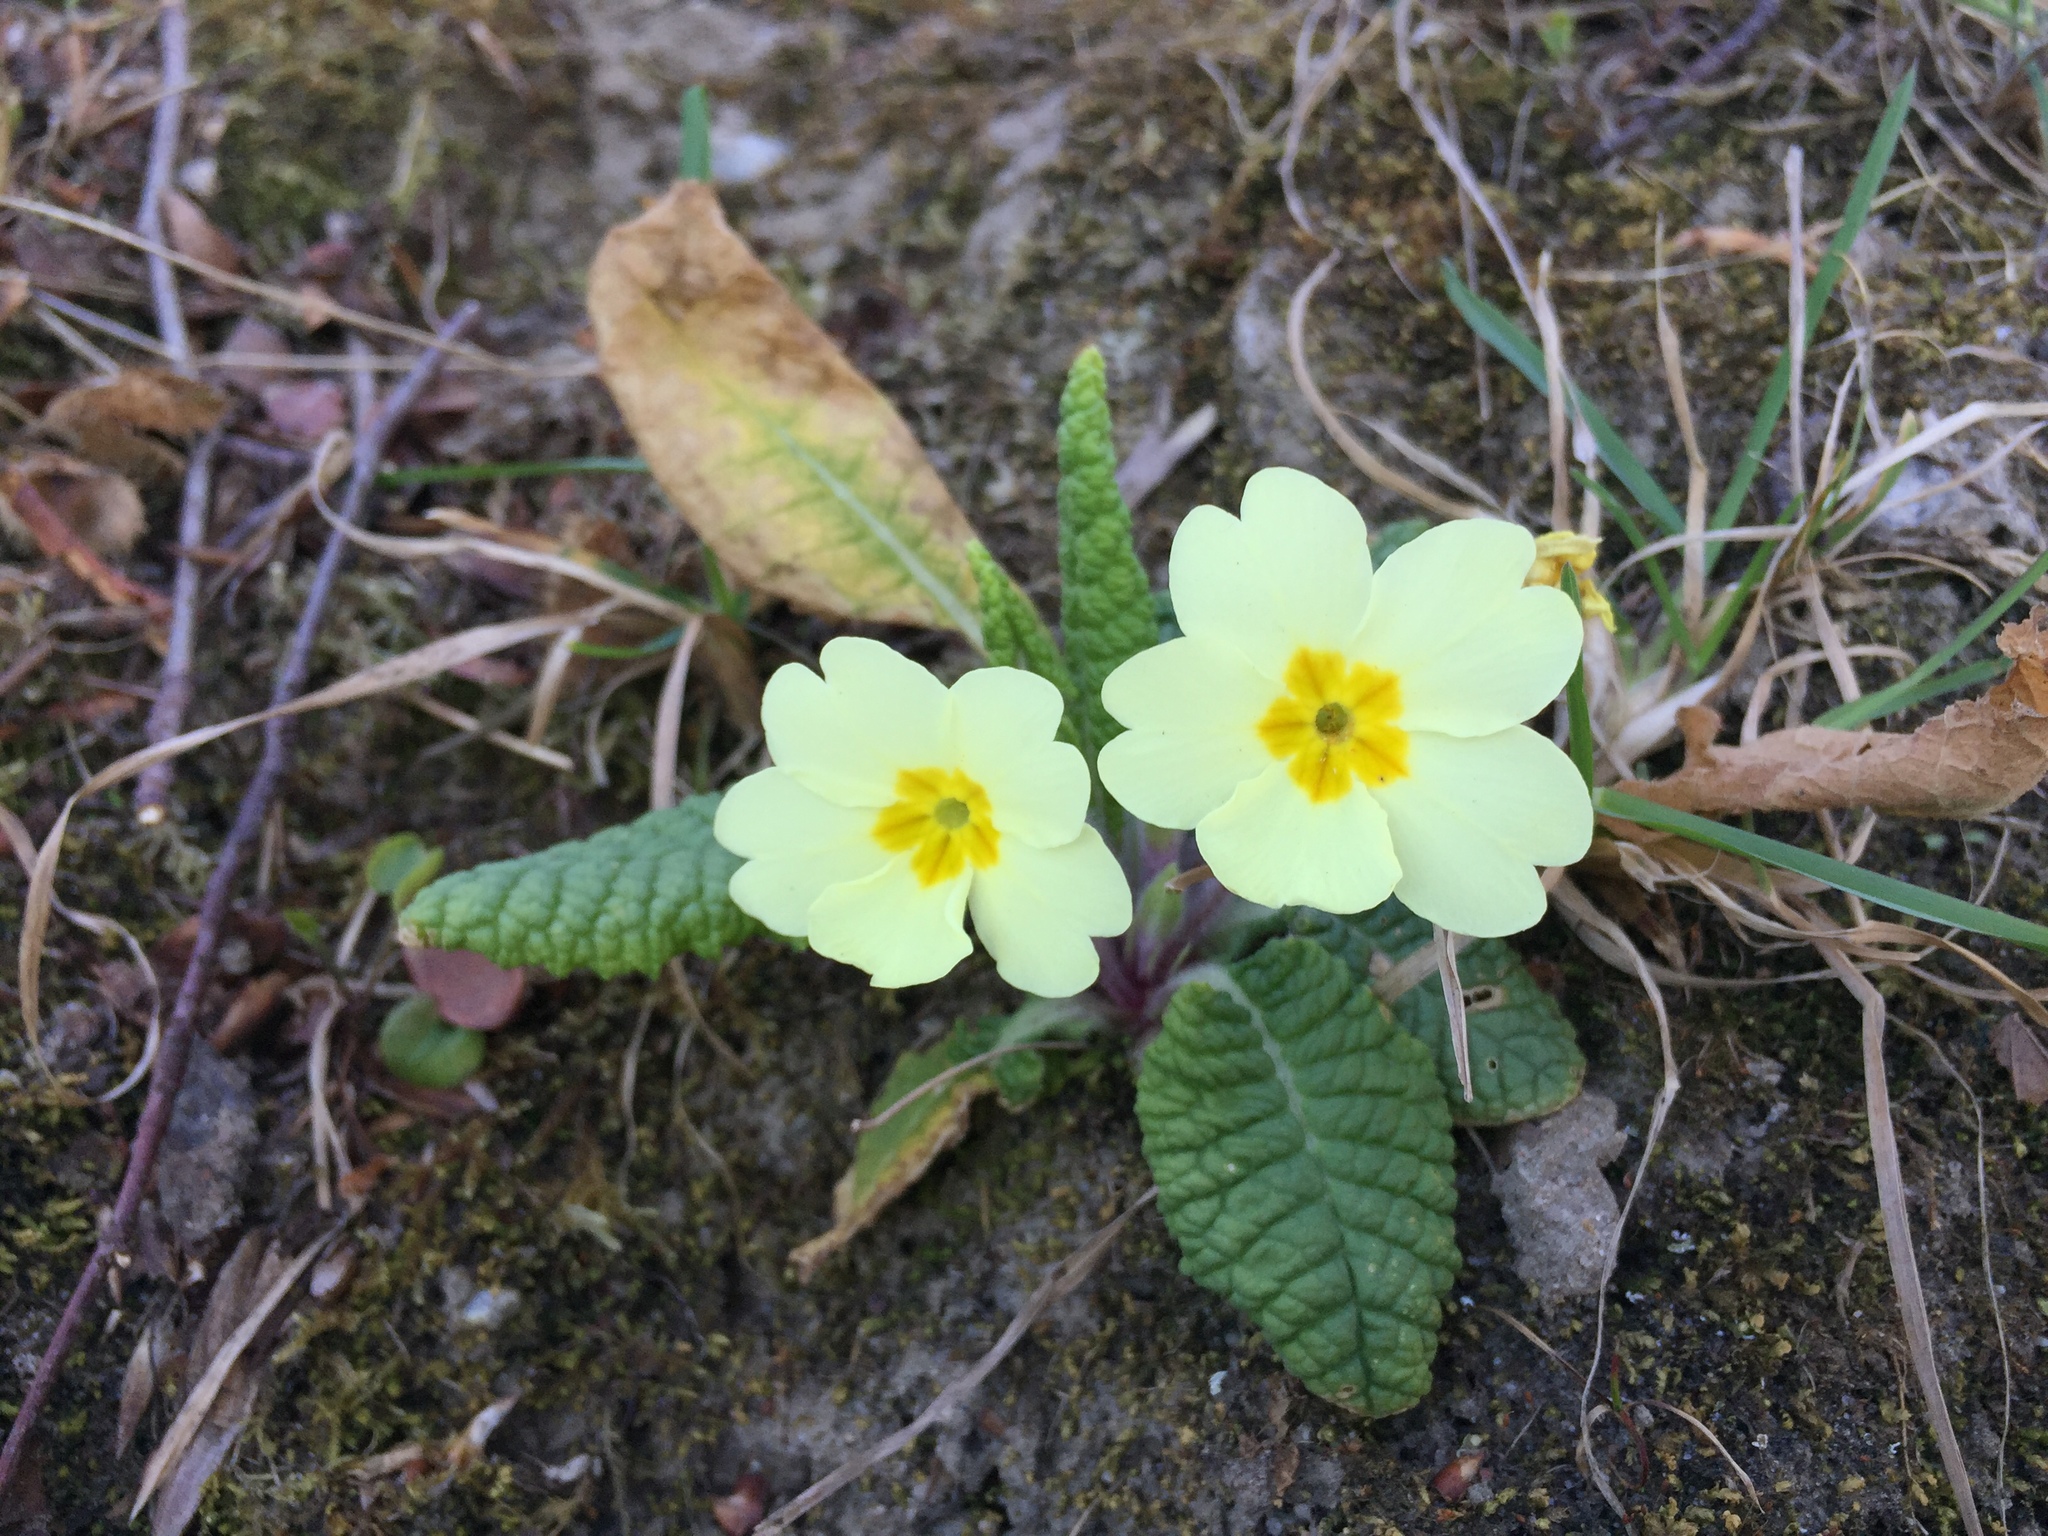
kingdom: Plantae
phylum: Tracheophyta
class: Magnoliopsida
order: Ericales
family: Primulaceae
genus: Primula
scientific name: Primula vulgaris
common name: Primrose
